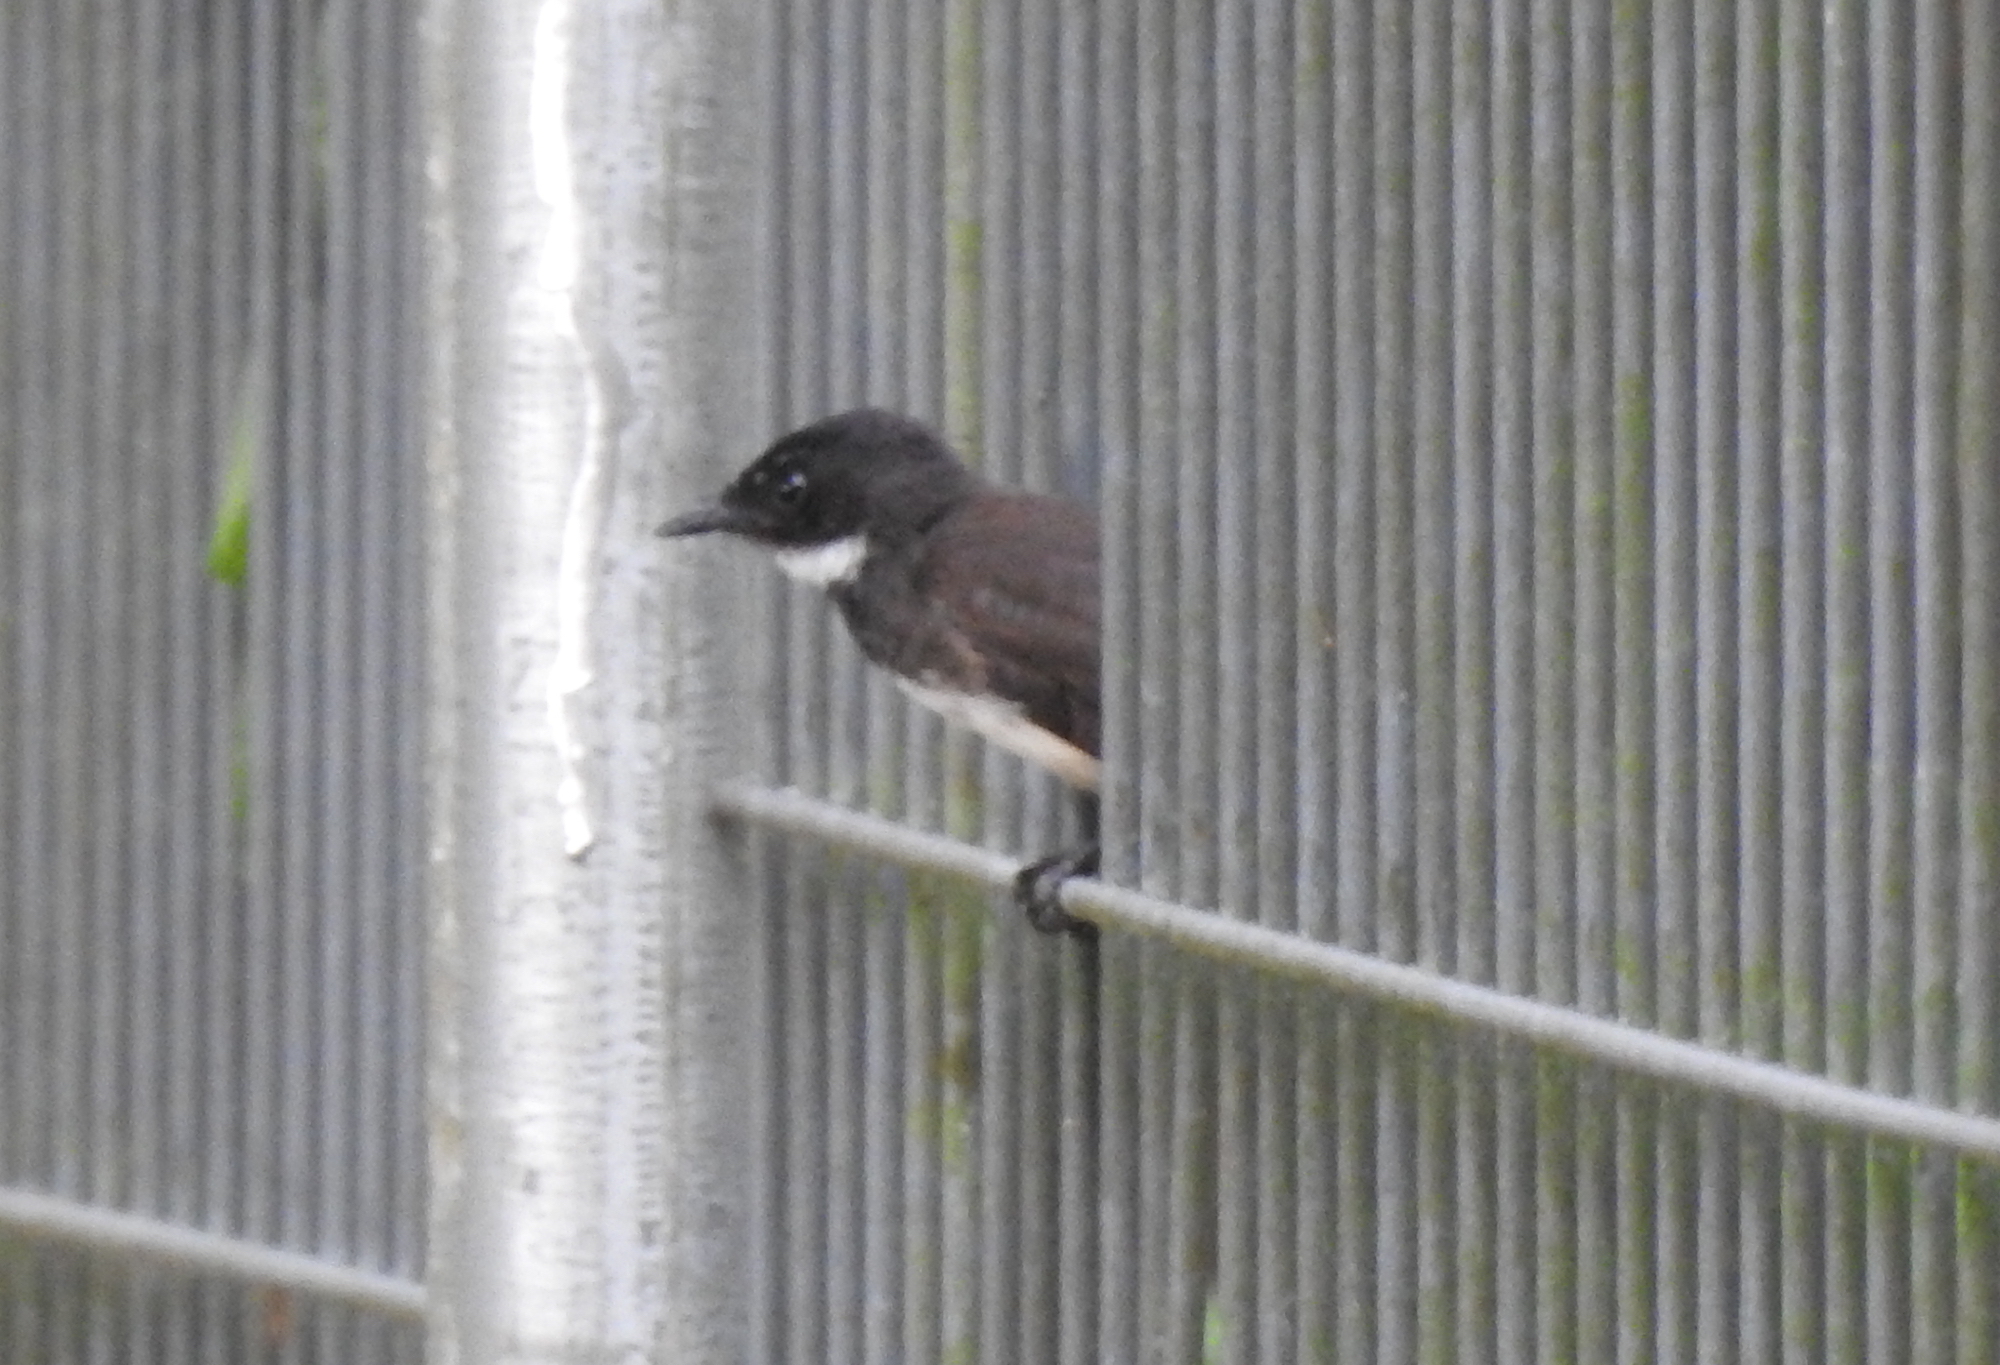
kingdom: Animalia
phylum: Chordata
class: Aves
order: Passeriformes
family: Rhipiduridae
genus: Rhipidura
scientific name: Rhipidura javanica
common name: Pied fantail
